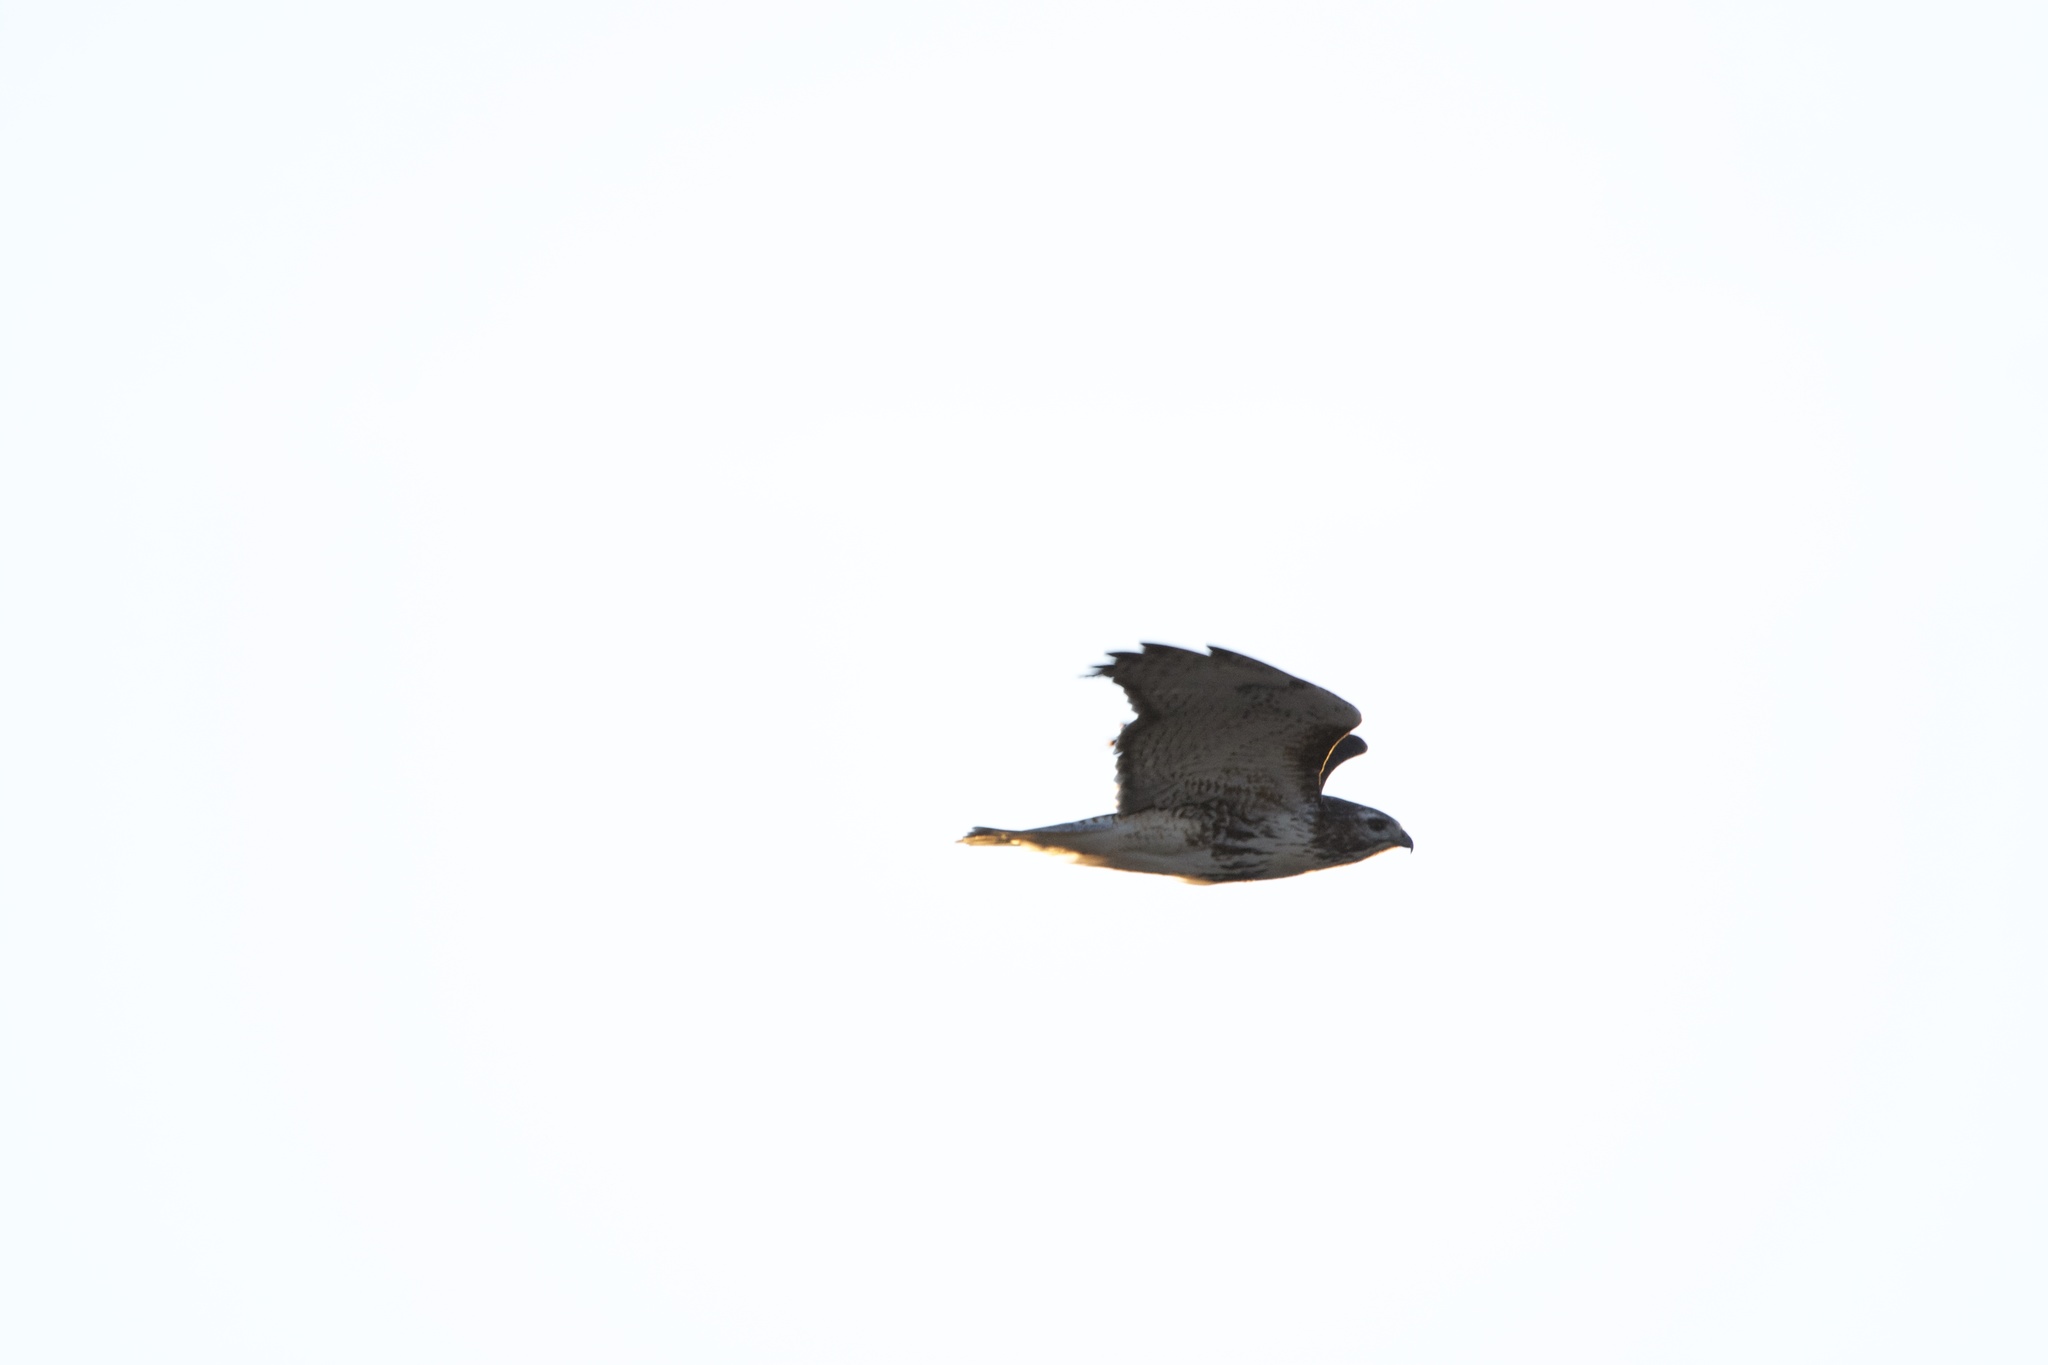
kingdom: Animalia
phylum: Chordata
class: Aves
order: Accipitriformes
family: Accipitridae
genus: Buteo
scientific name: Buteo jamaicensis
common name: Red-tailed hawk
